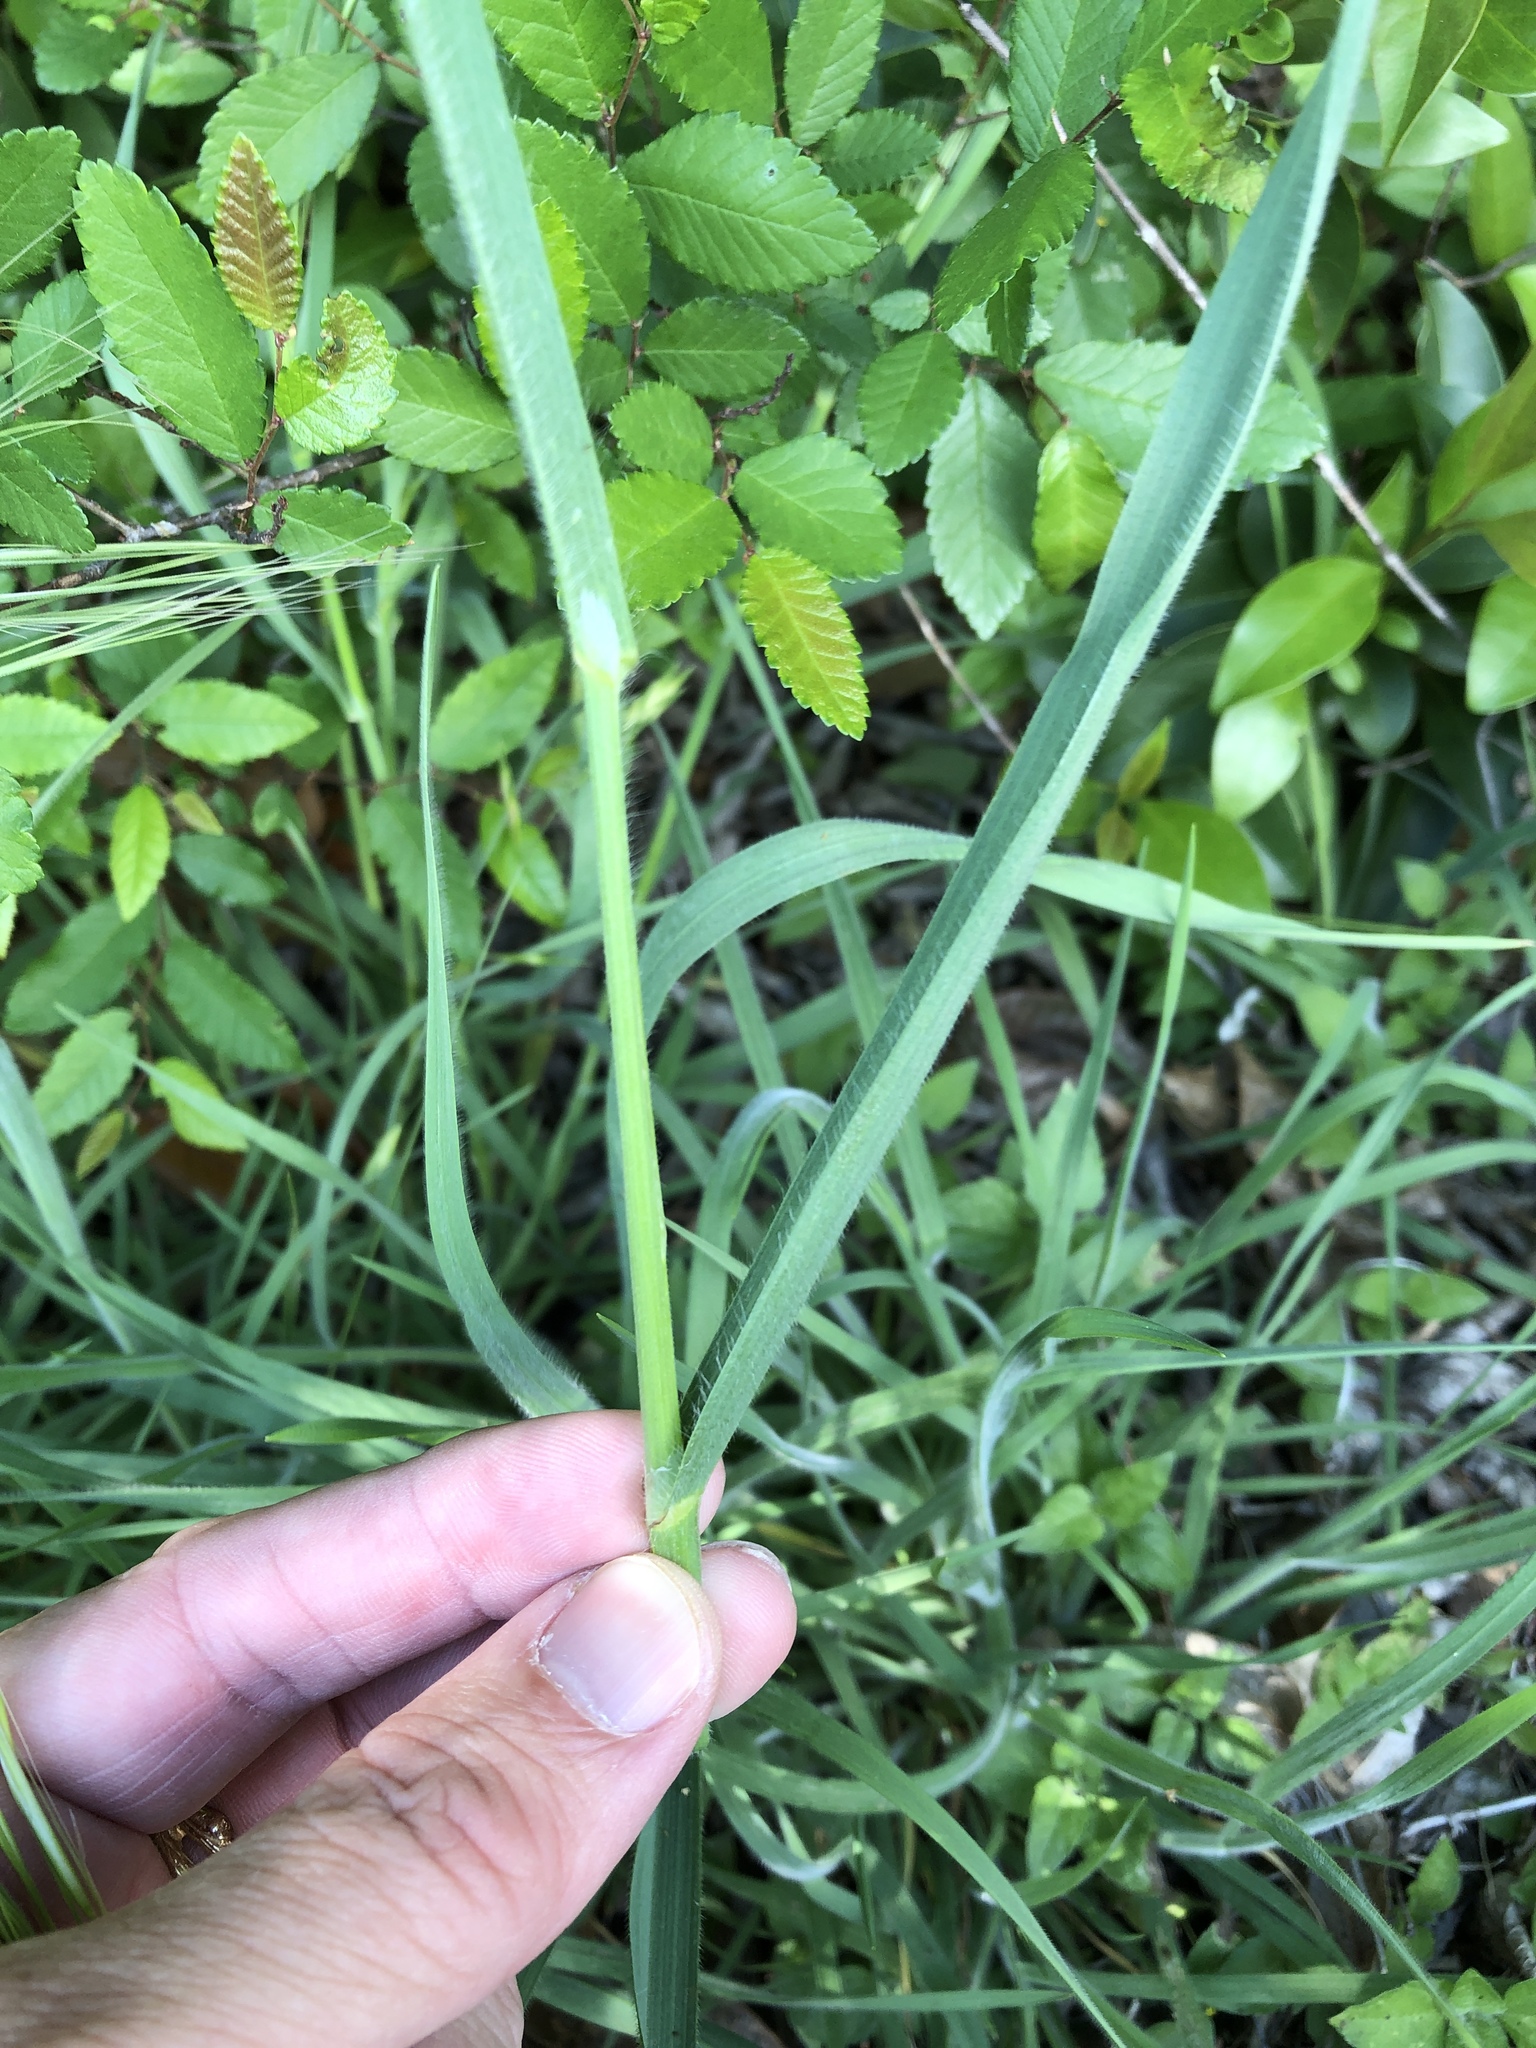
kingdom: Plantae
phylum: Tracheophyta
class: Liliopsida
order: Poales
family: Poaceae
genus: Bromus
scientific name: Bromus diandrus
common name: Ripgut brome
